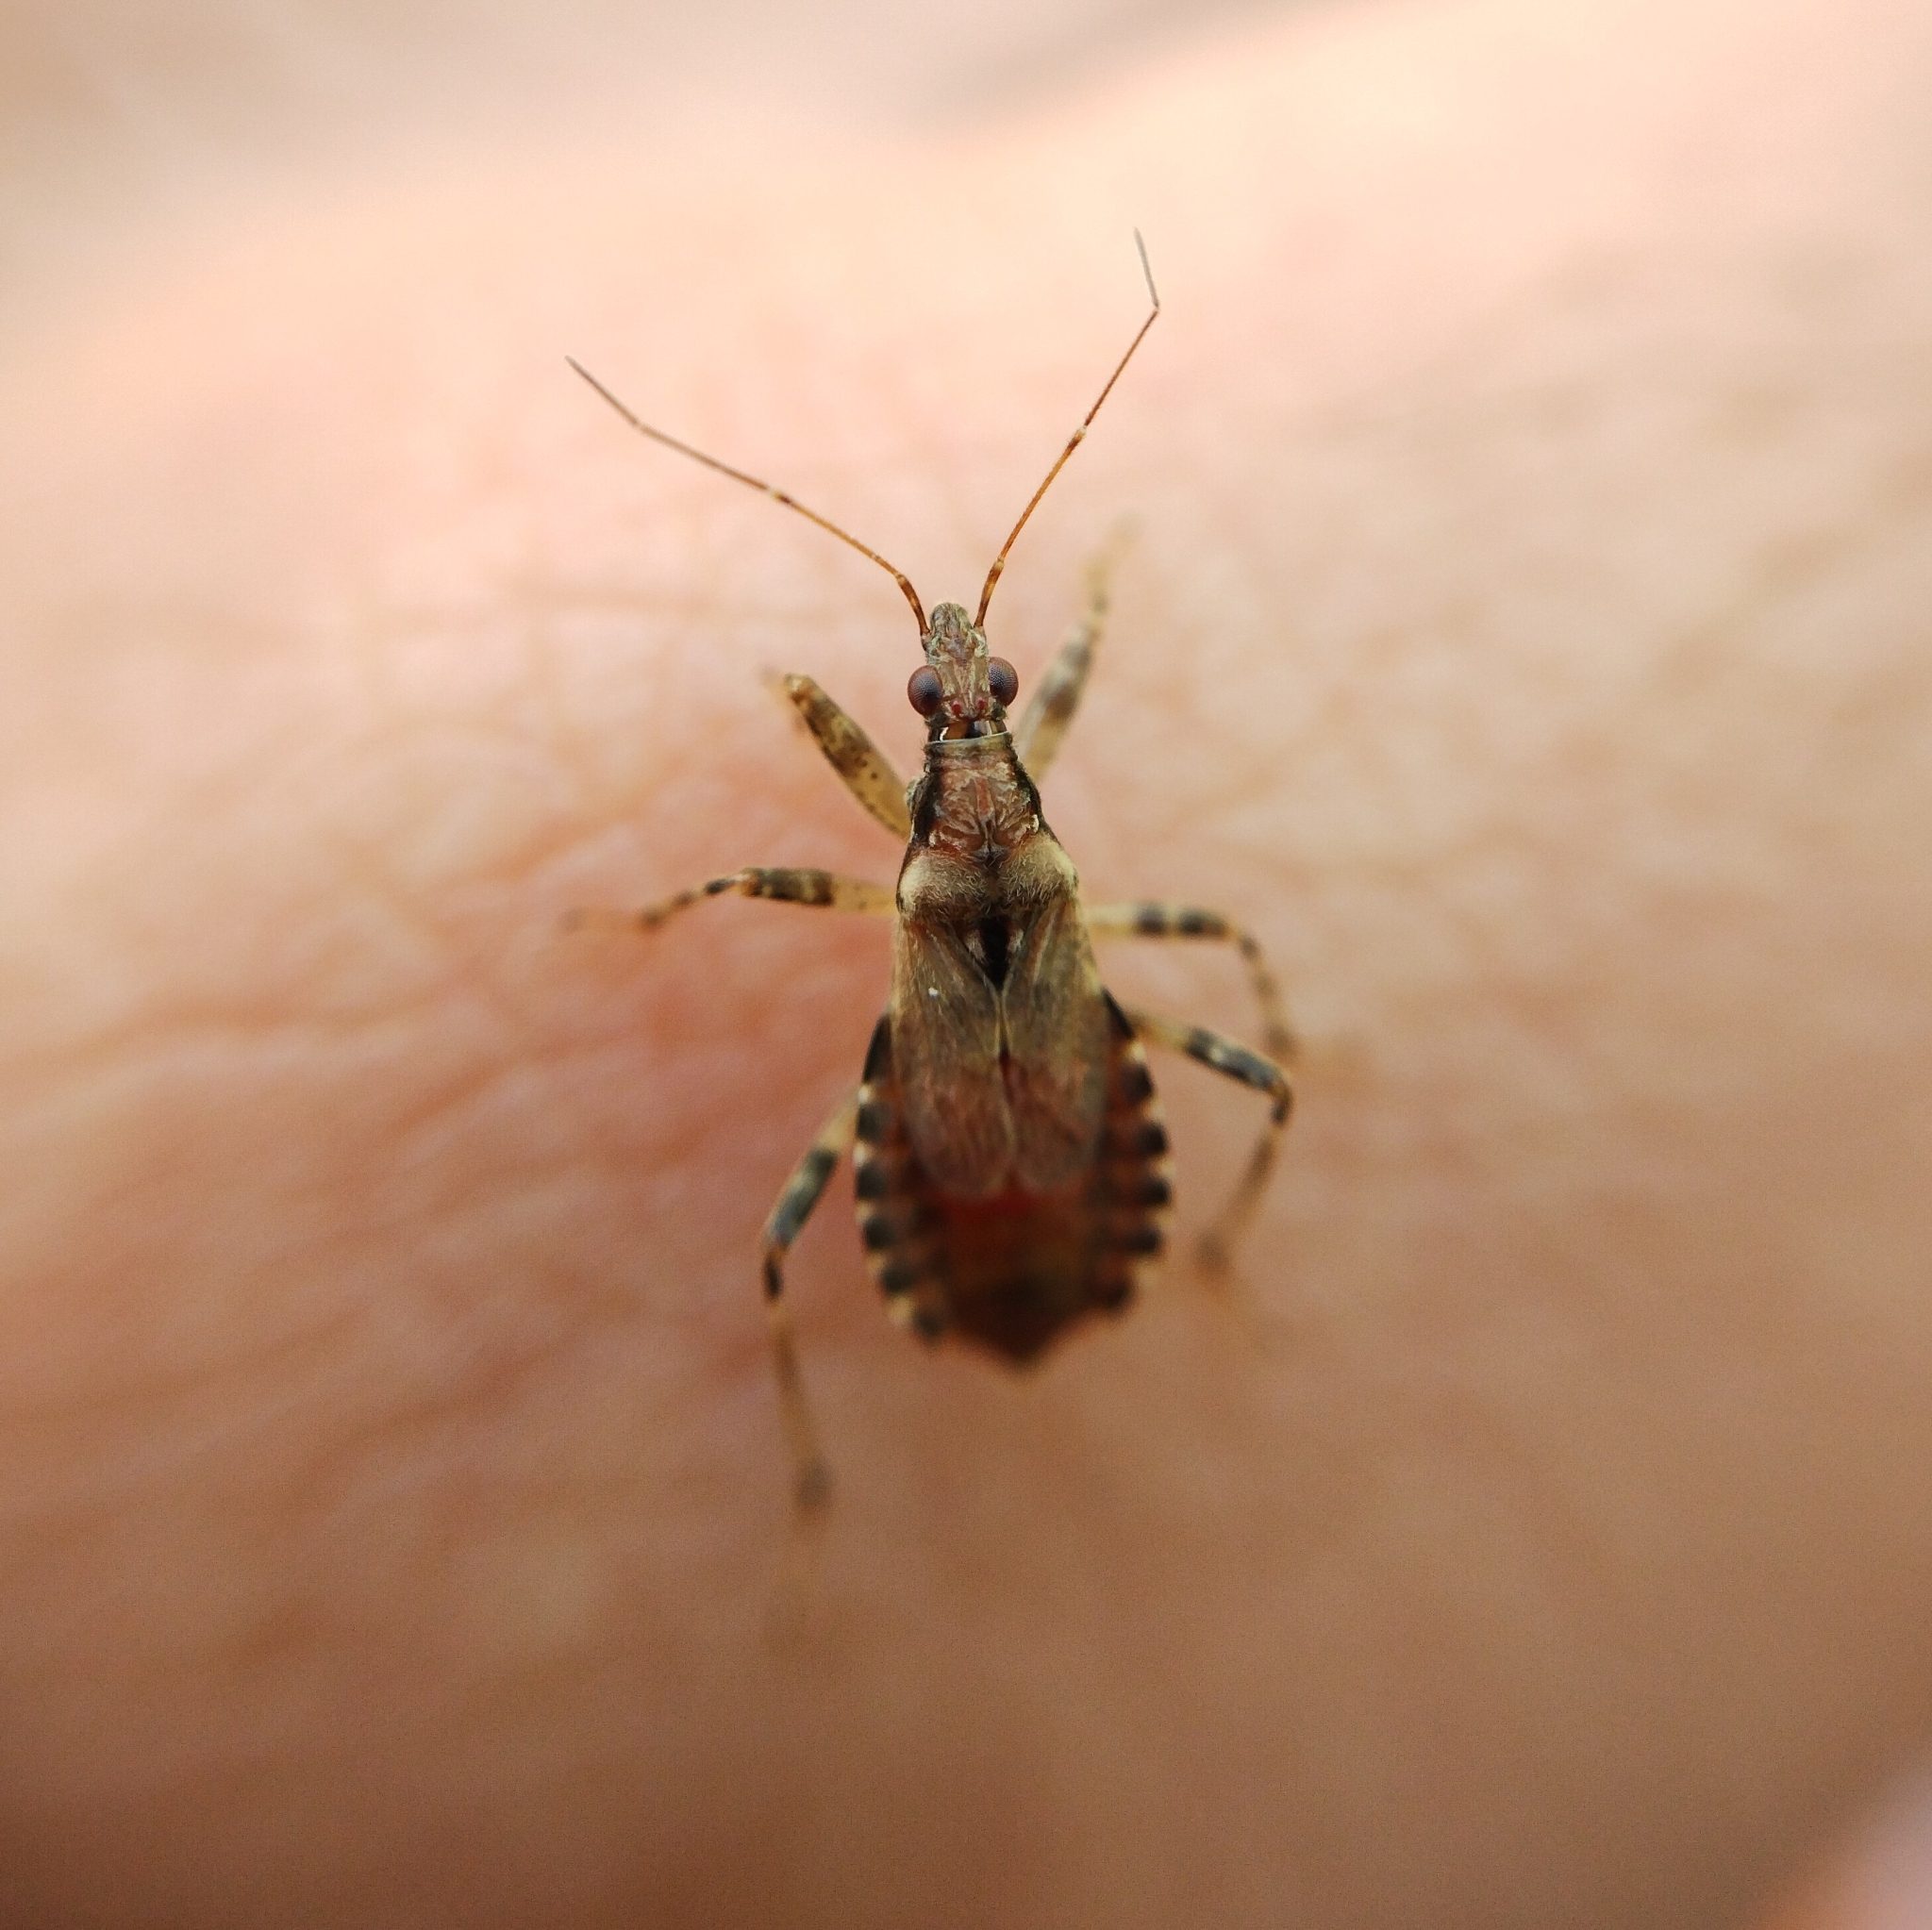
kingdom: Animalia
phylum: Arthropoda
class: Insecta
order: Hemiptera
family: Nabidae
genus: Himacerus
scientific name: Himacerus mirmicoides
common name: Ant damsel bug
